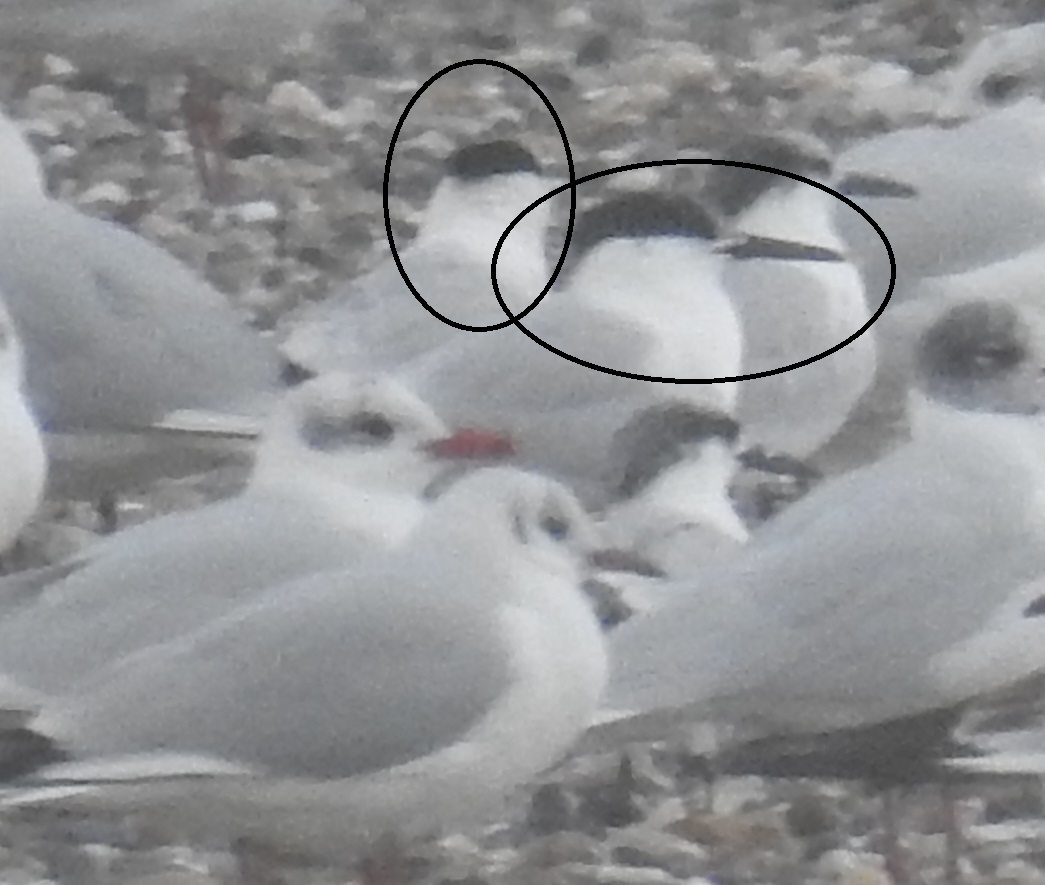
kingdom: Animalia
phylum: Chordata
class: Aves
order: Charadriiformes
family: Laridae
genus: Thalasseus
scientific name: Thalasseus sandvicensis
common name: Sandwich tern
